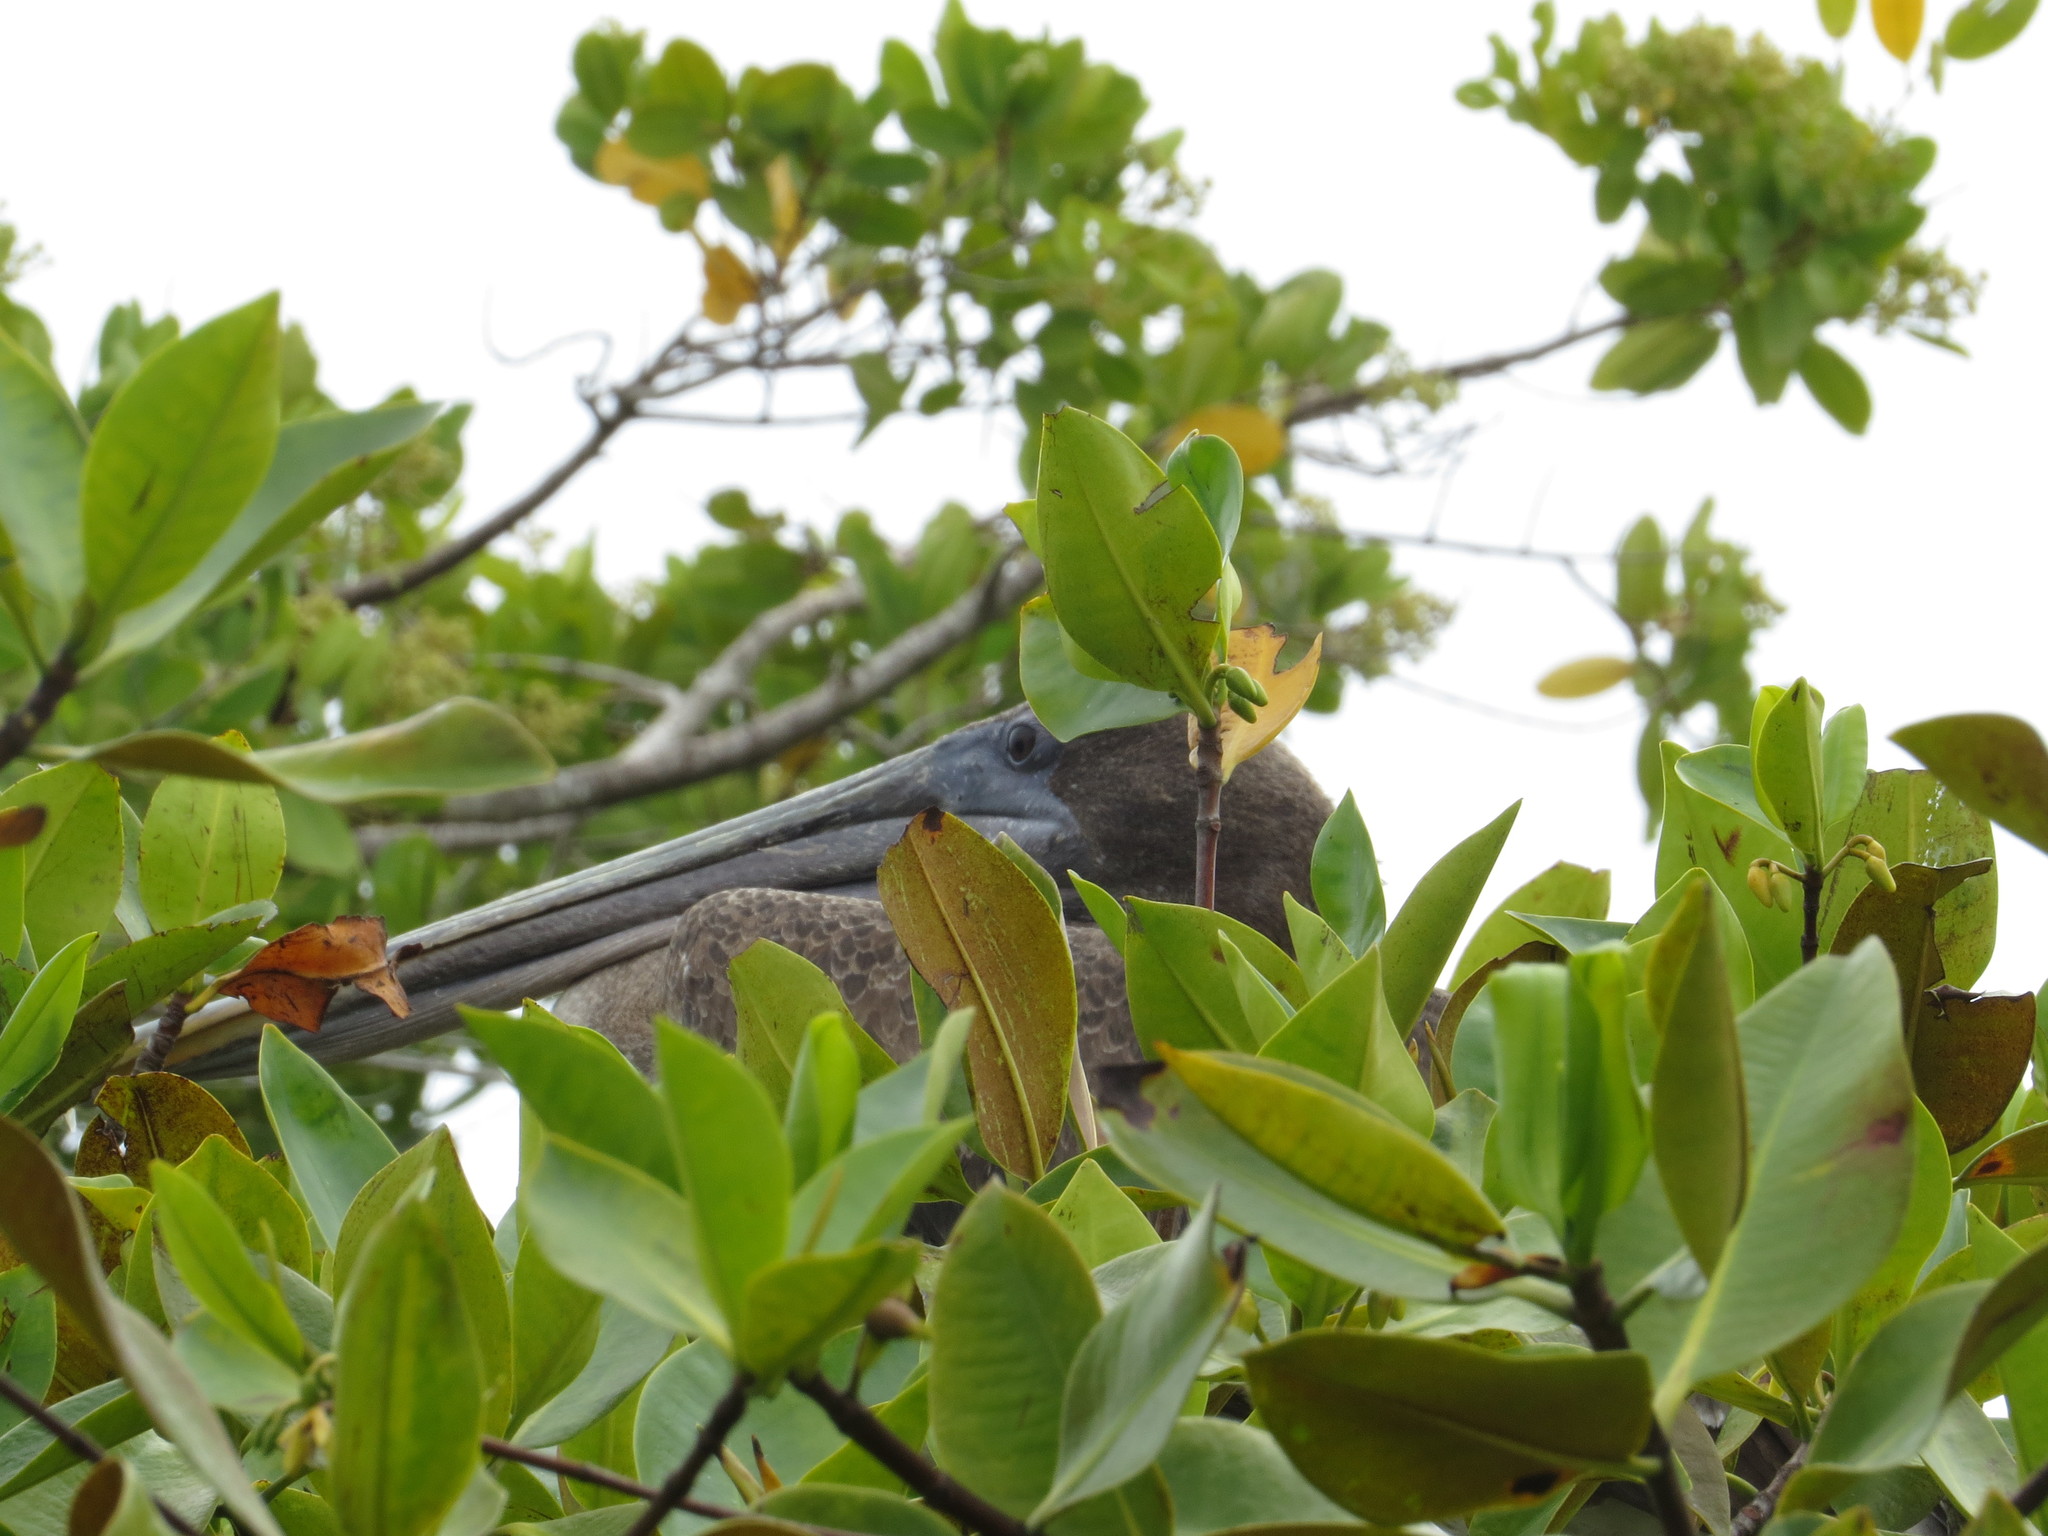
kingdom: Animalia
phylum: Chordata
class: Aves
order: Pelecaniformes
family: Pelecanidae
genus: Pelecanus
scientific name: Pelecanus occidentalis
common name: Brown pelican
